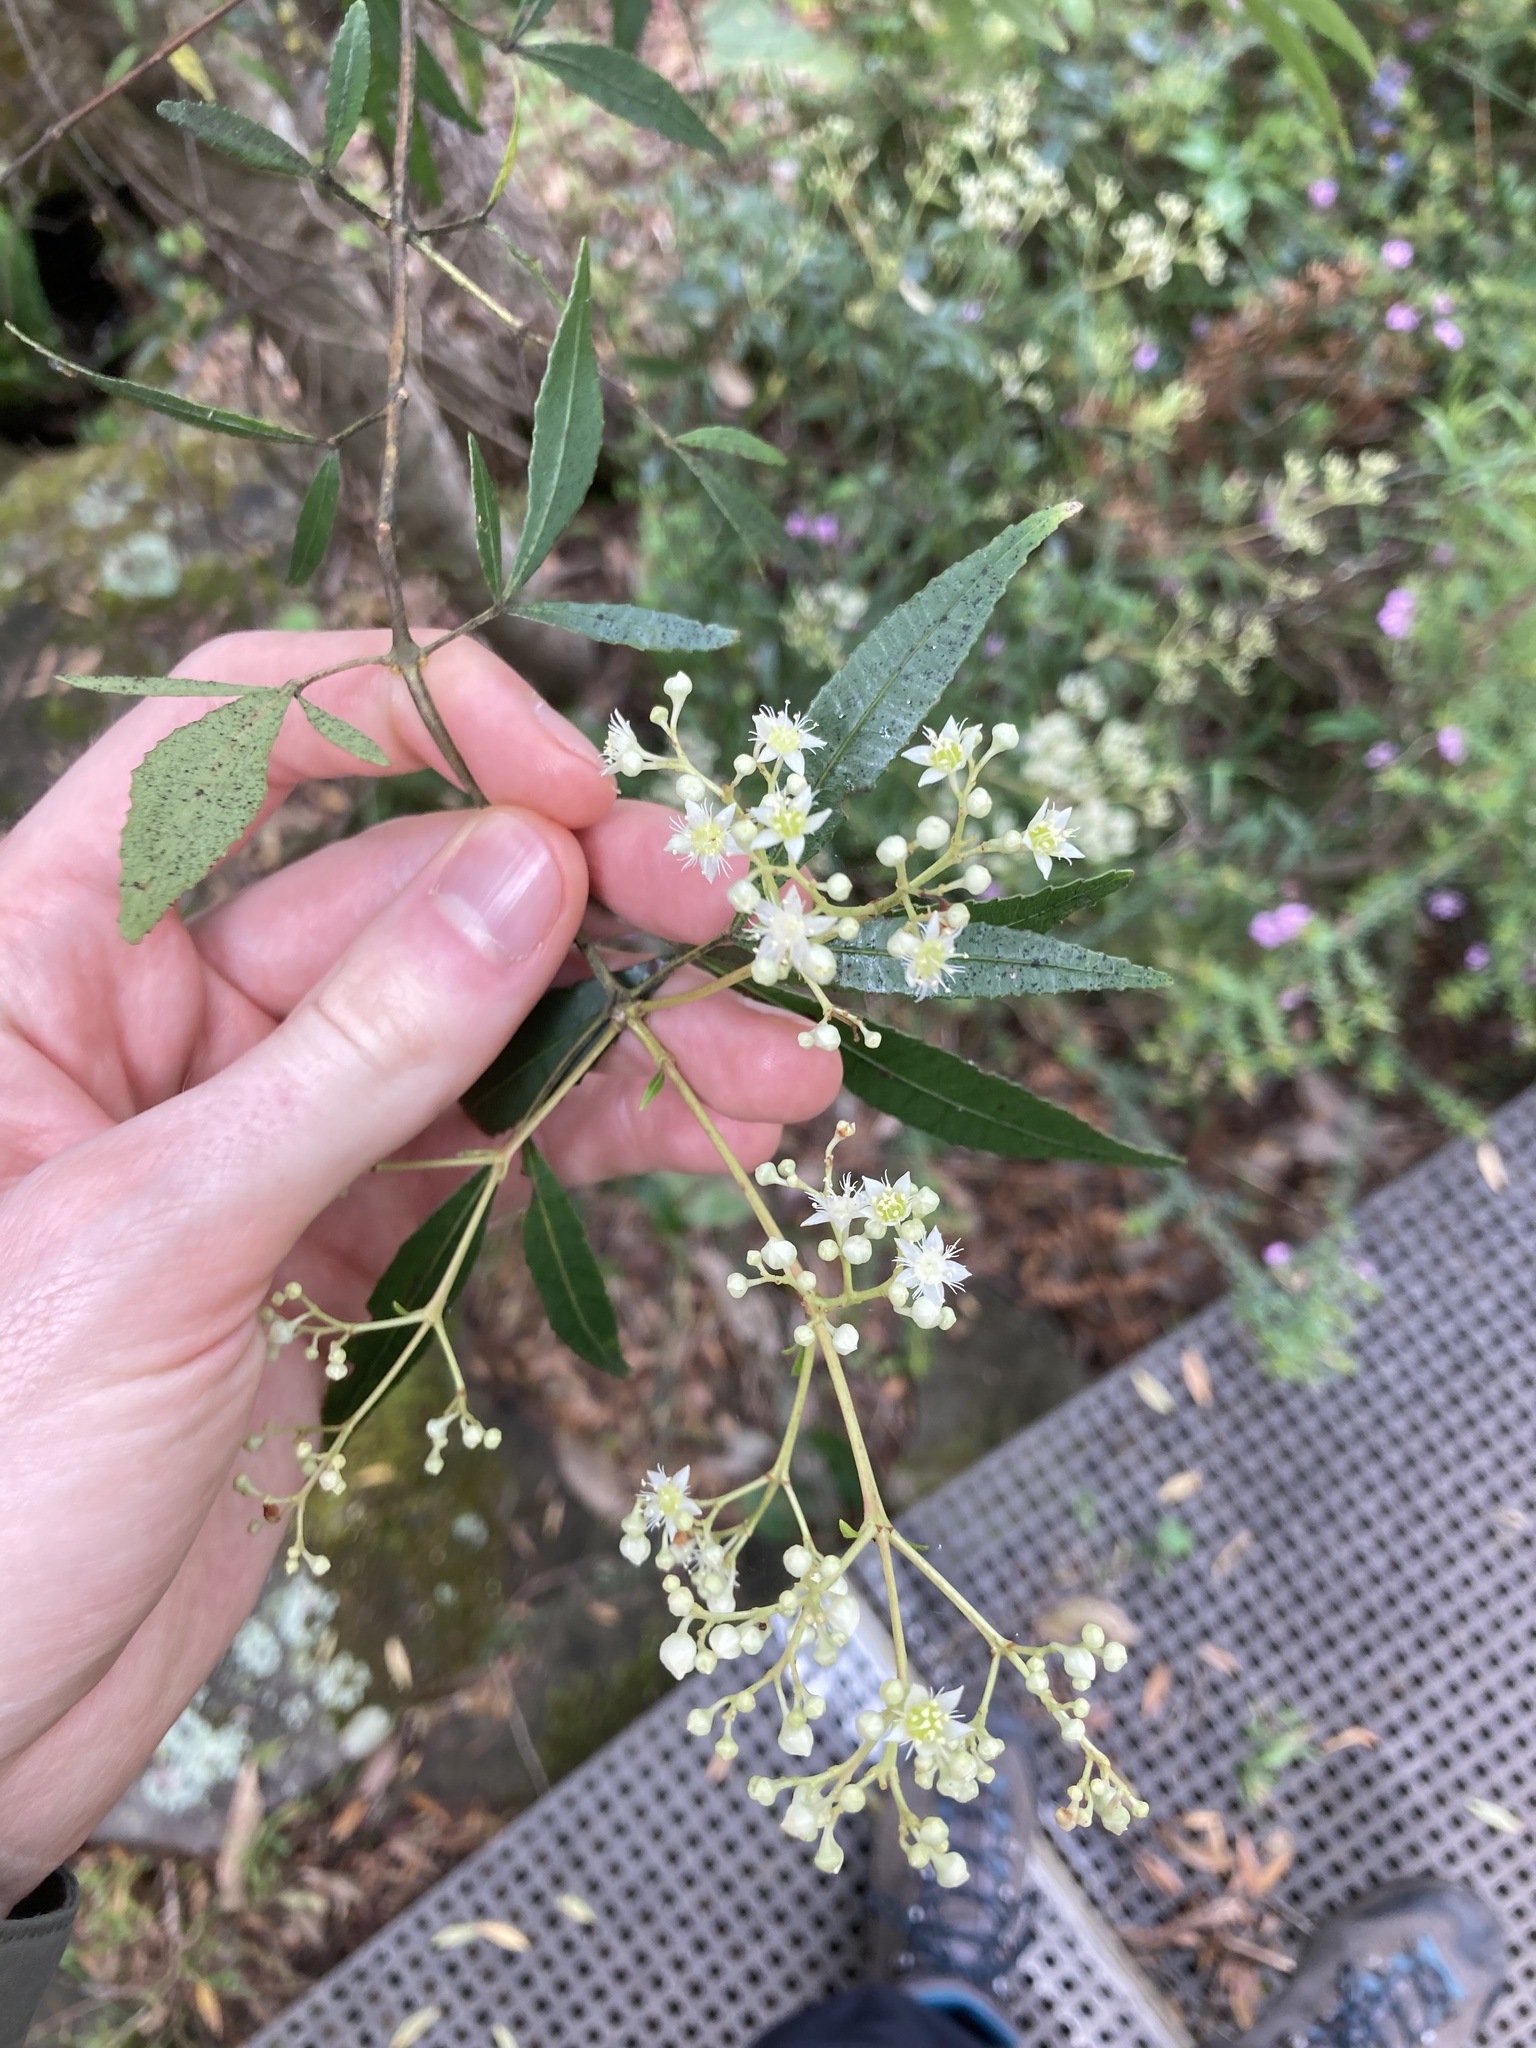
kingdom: Plantae
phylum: Tracheophyta
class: Magnoliopsida
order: Oxalidales
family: Cunoniaceae
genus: Ceratopetalum
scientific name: Ceratopetalum gummiferum
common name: Christmasbush
